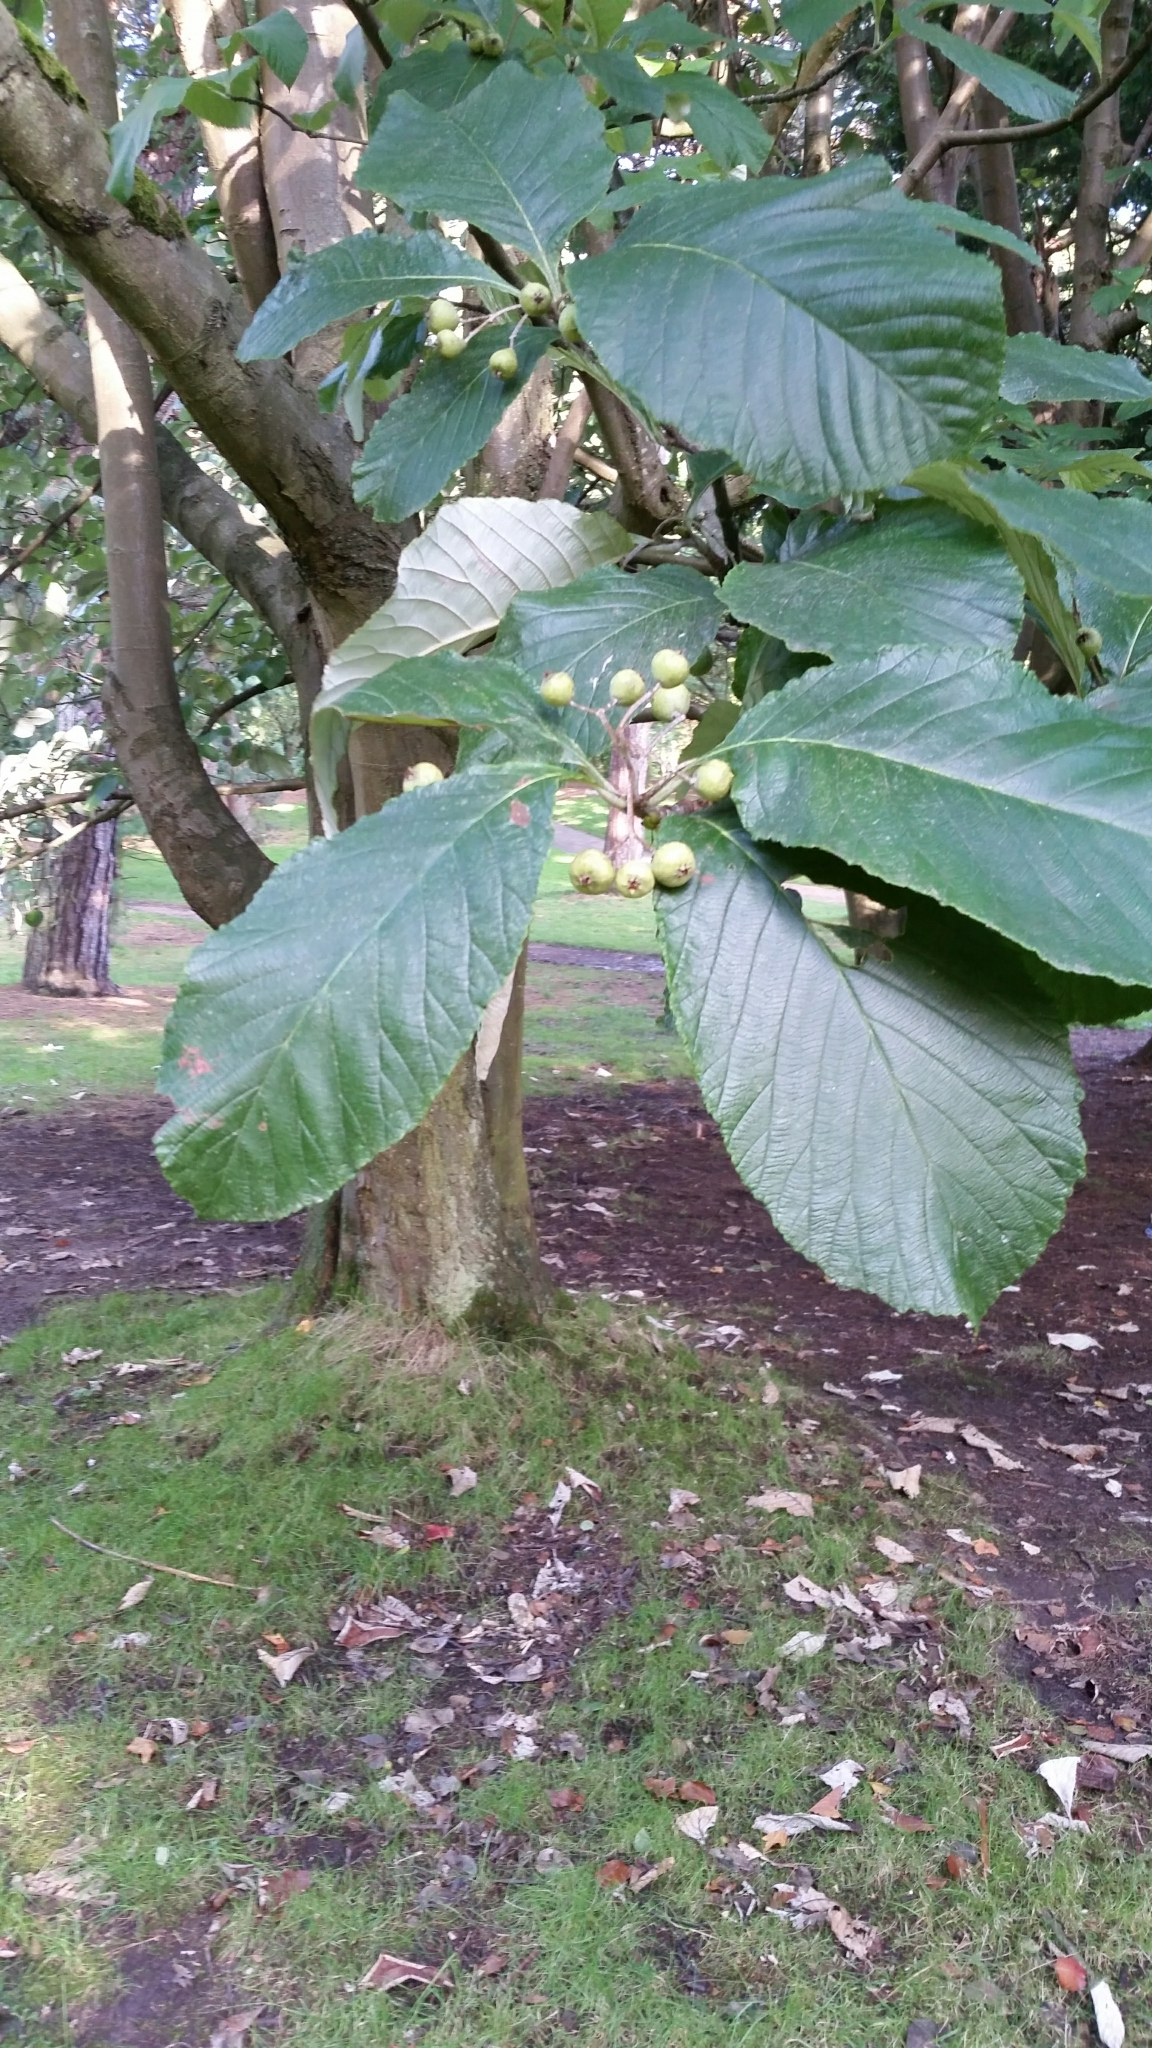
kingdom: Plantae
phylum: Tracheophyta
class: Magnoliopsida
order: Rosales
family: Rosaceae
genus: Aria
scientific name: Aria edulis
